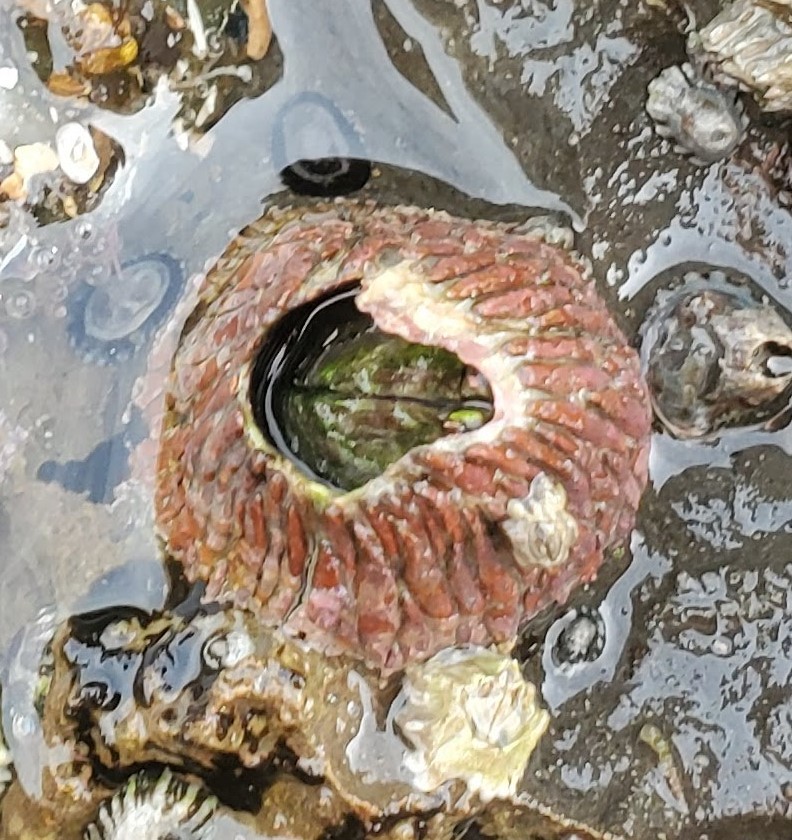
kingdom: Animalia
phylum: Arthropoda
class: Maxillopoda
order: Sessilia
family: Tetraclitidae
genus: Tetraclita
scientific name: Tetraclita rubescens
